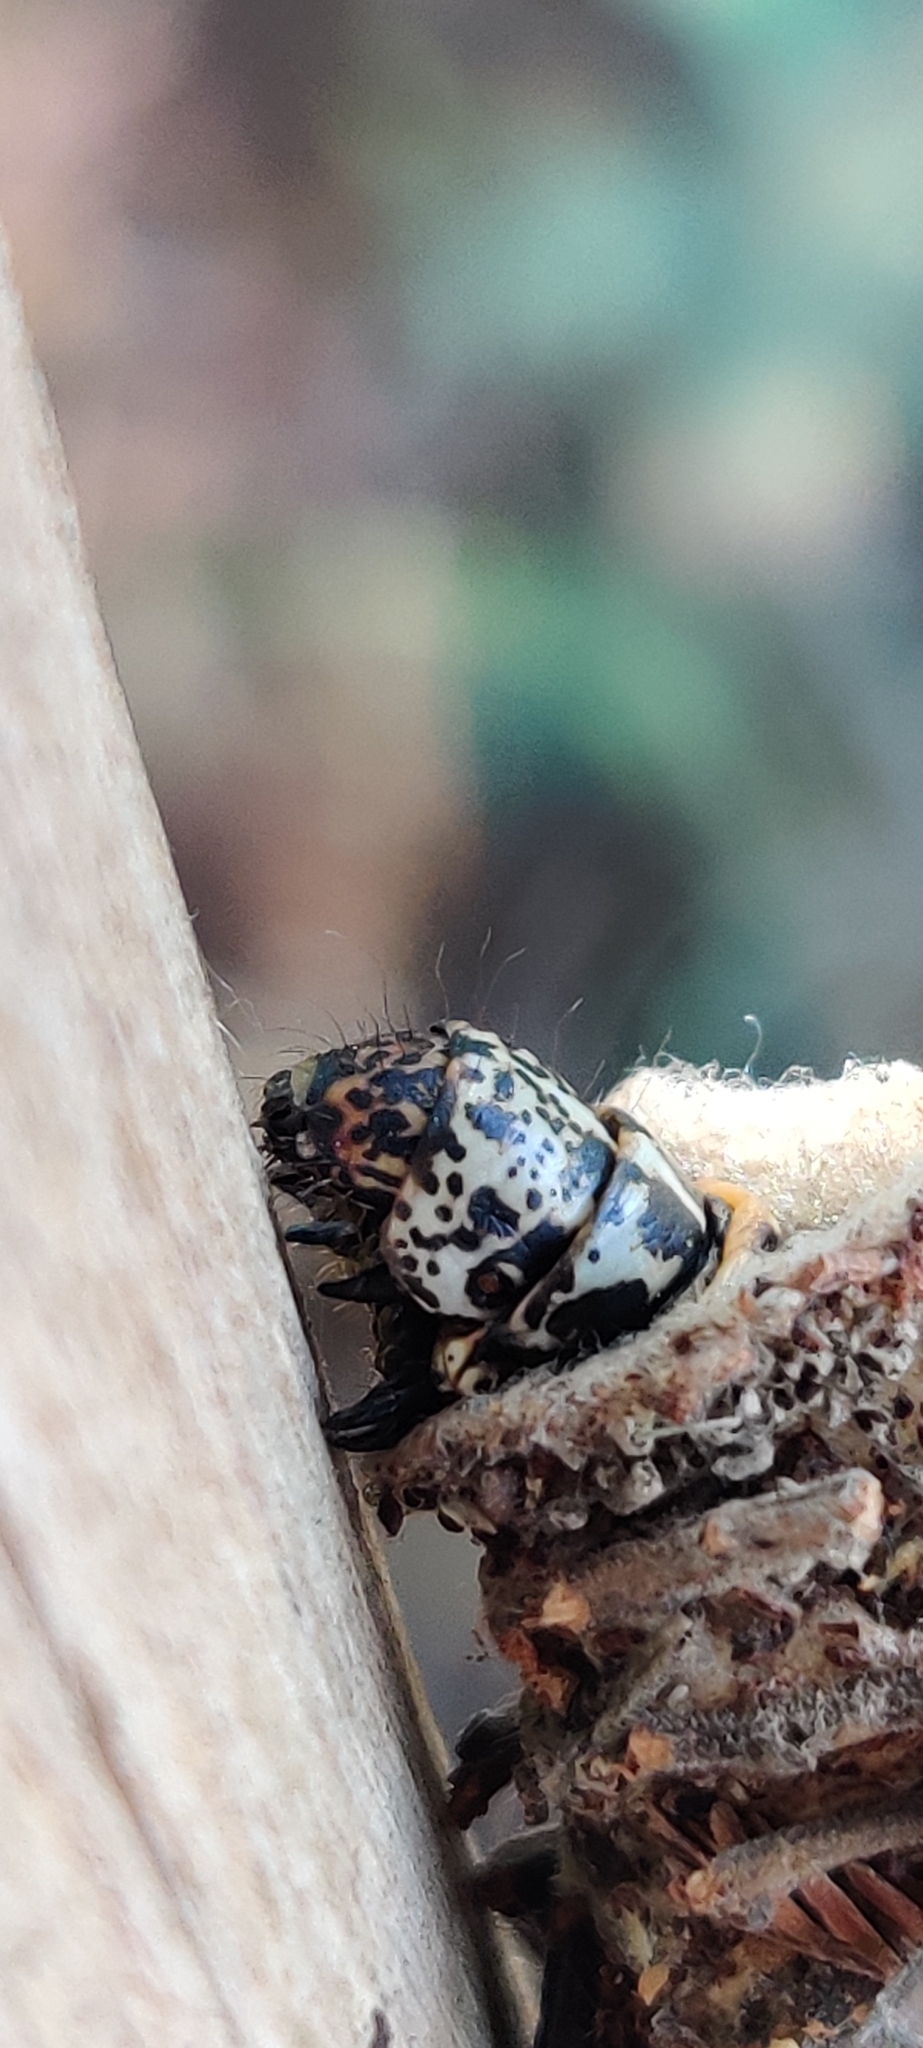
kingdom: Animalia
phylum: Arthropoda
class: Insecta
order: Lepidoptera
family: Psychidae
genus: Deborrea
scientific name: Deborrea malgassa
